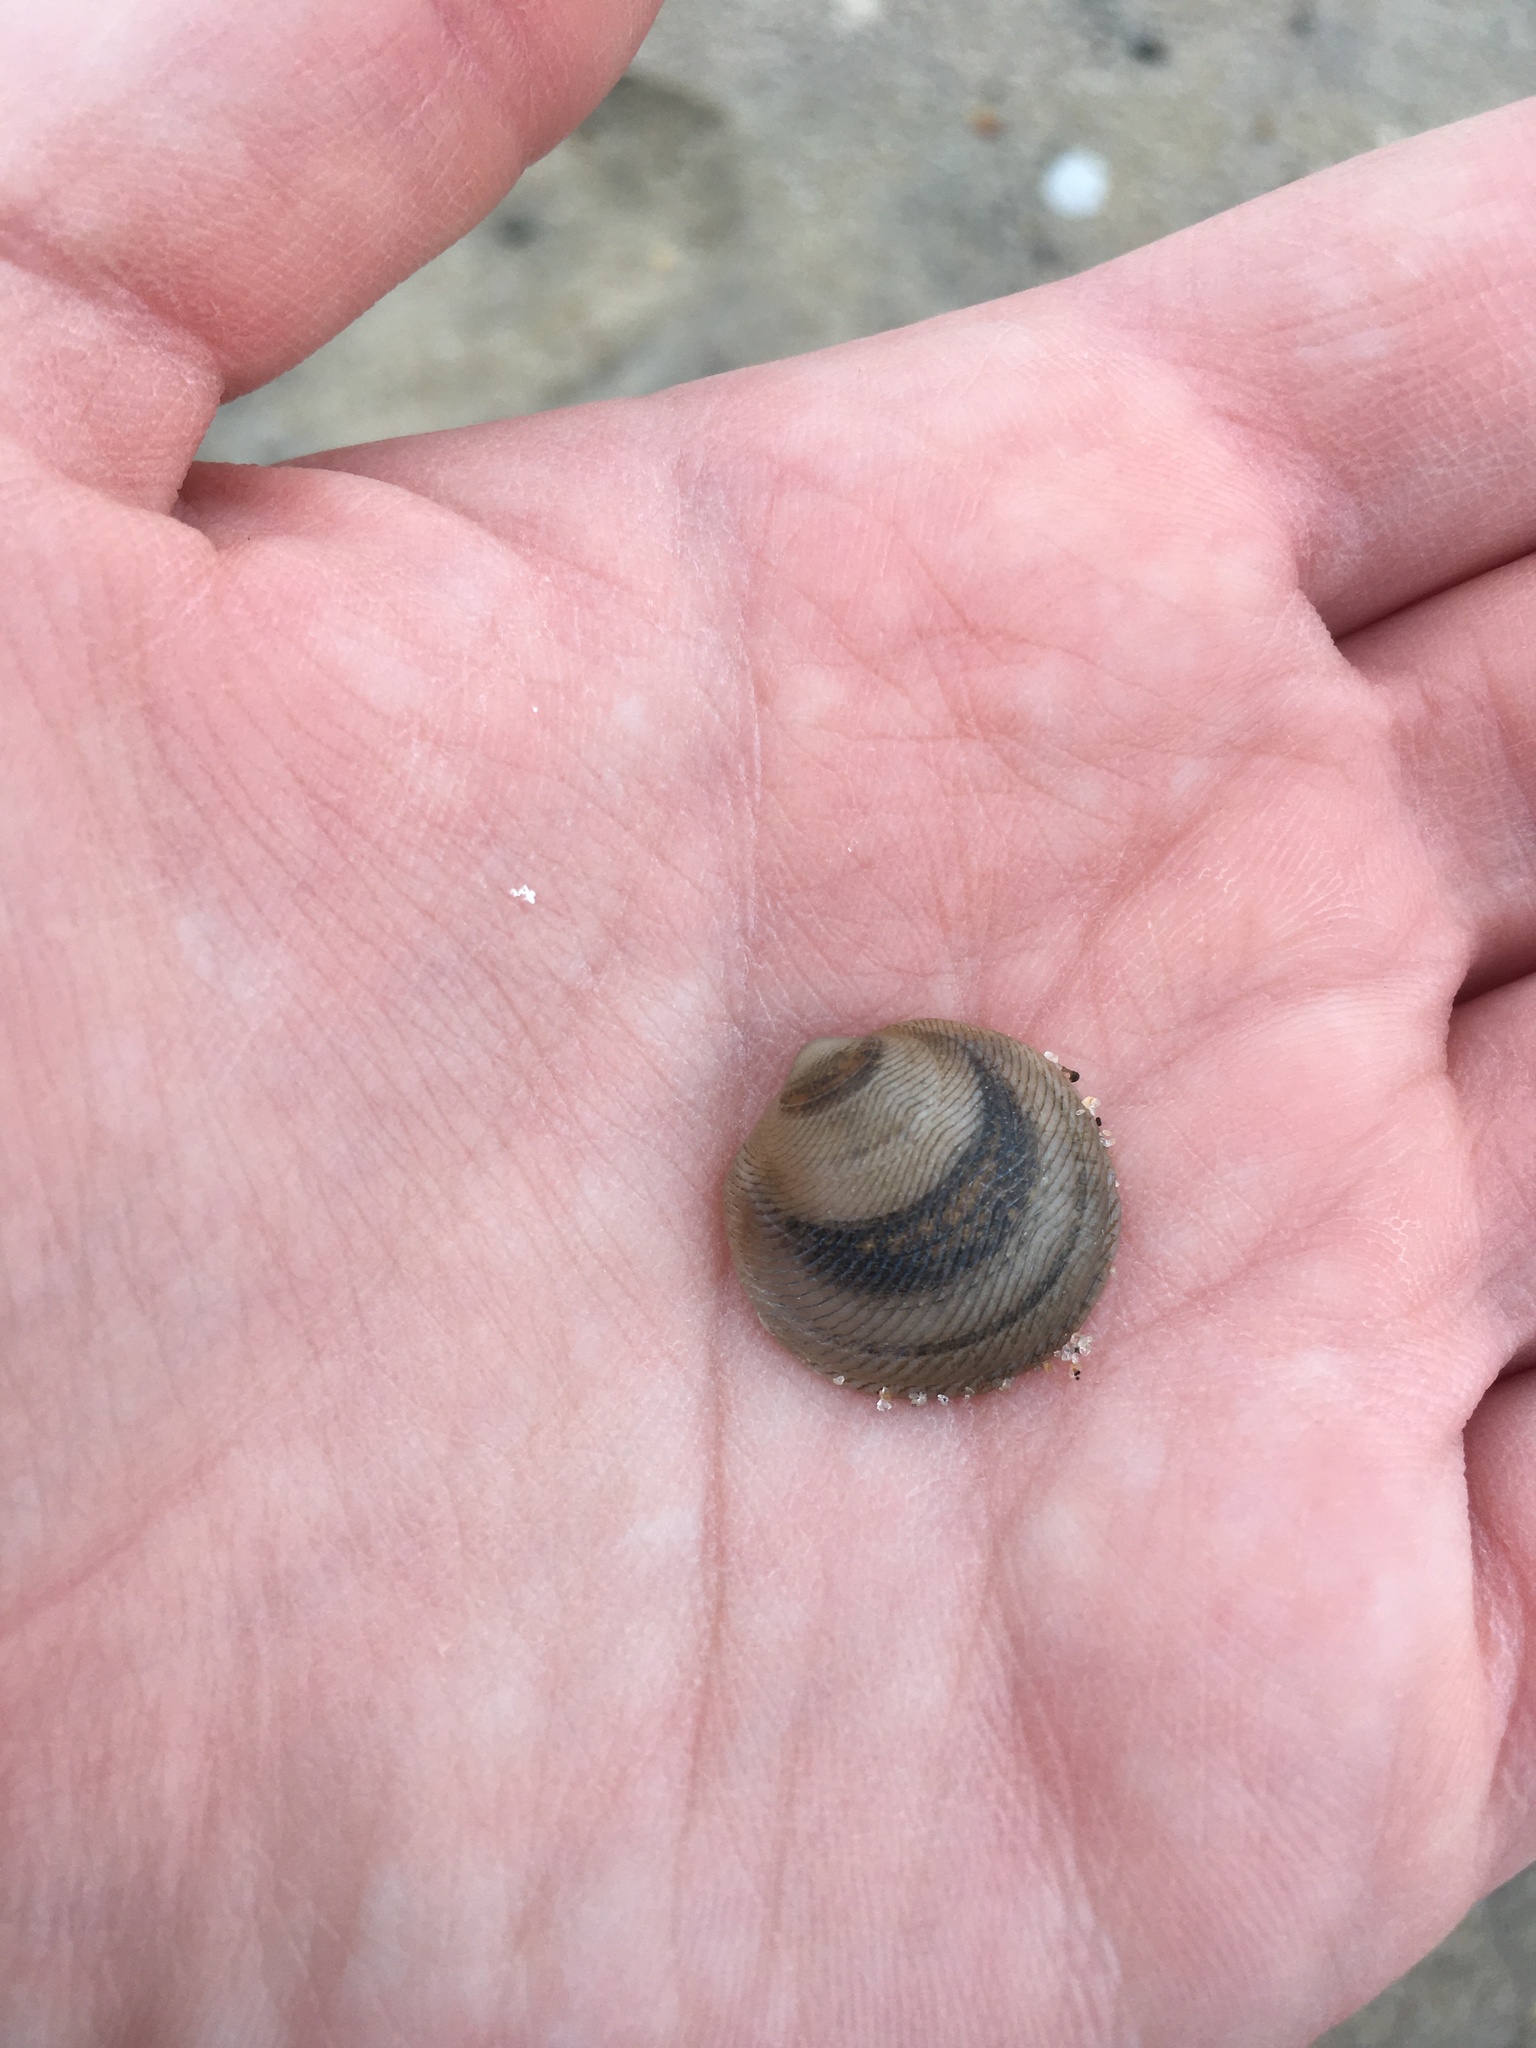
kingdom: Animalia
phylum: Mollusca
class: Bivalvia
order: Lucinida
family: Lucinidae
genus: Divalinga
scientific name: Divalinga quadrisulcata
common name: Cross-hatched lucine
